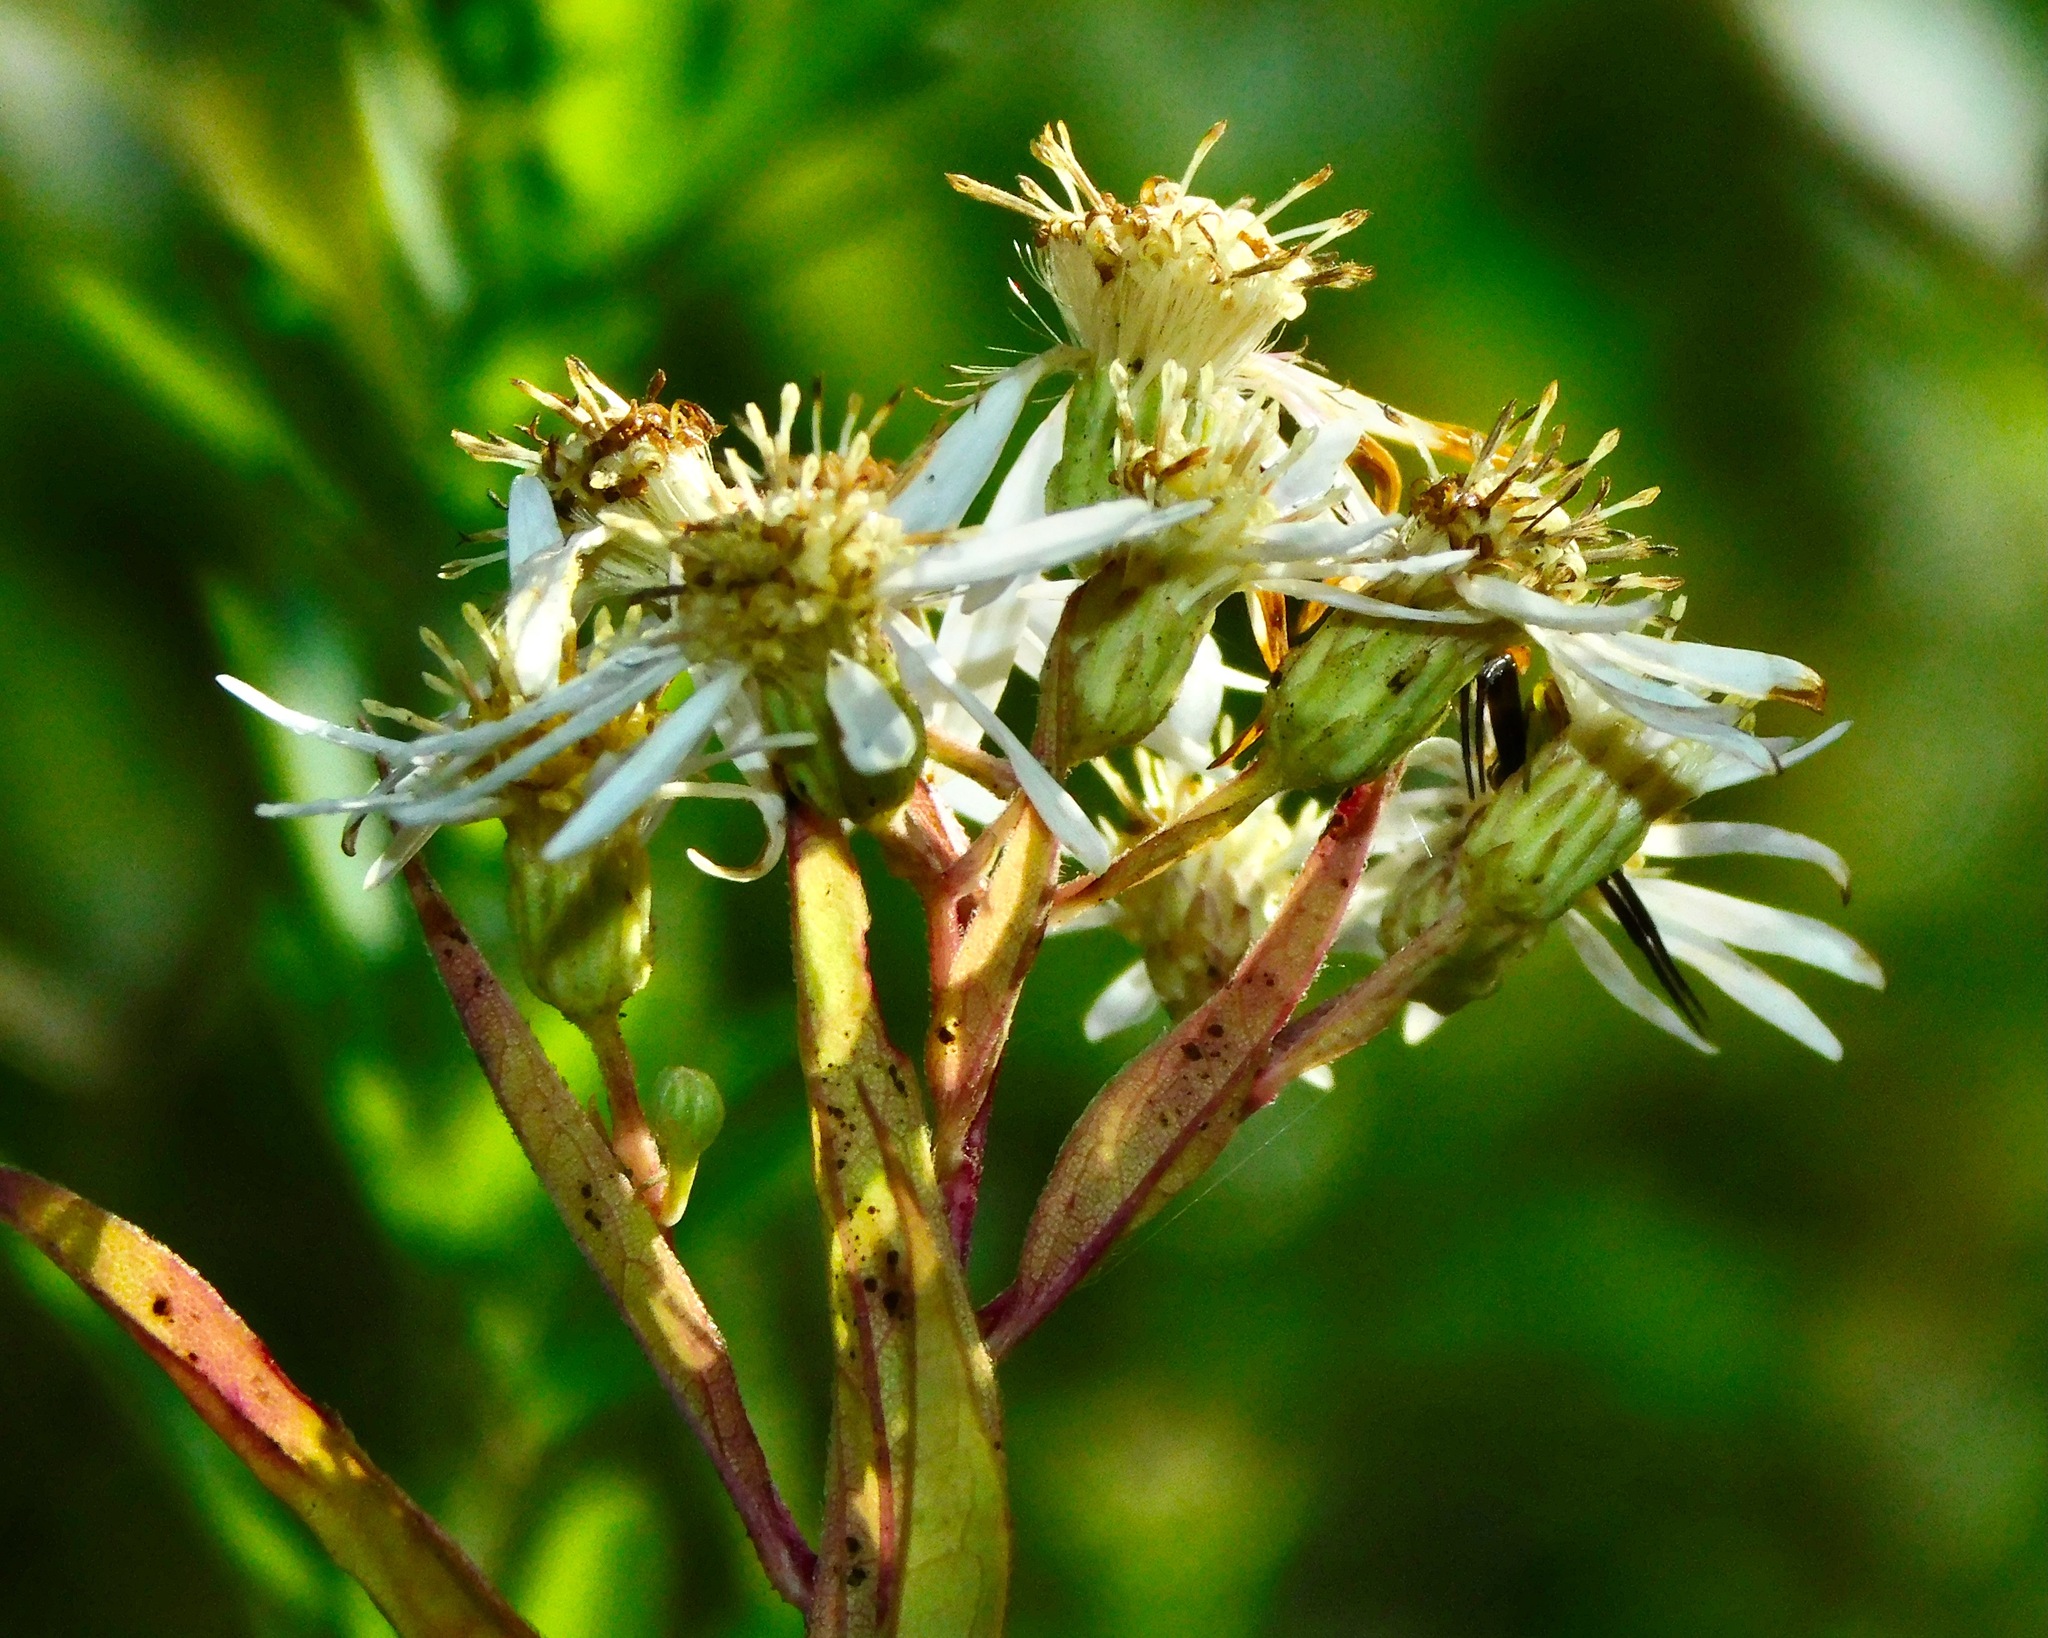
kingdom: Plantae
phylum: Tracheophyta
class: Magnoliopsida
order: Asterales
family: Asteraceae
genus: Doellingeria
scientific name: Doellingeria umbellata
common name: Flat-top white aster
